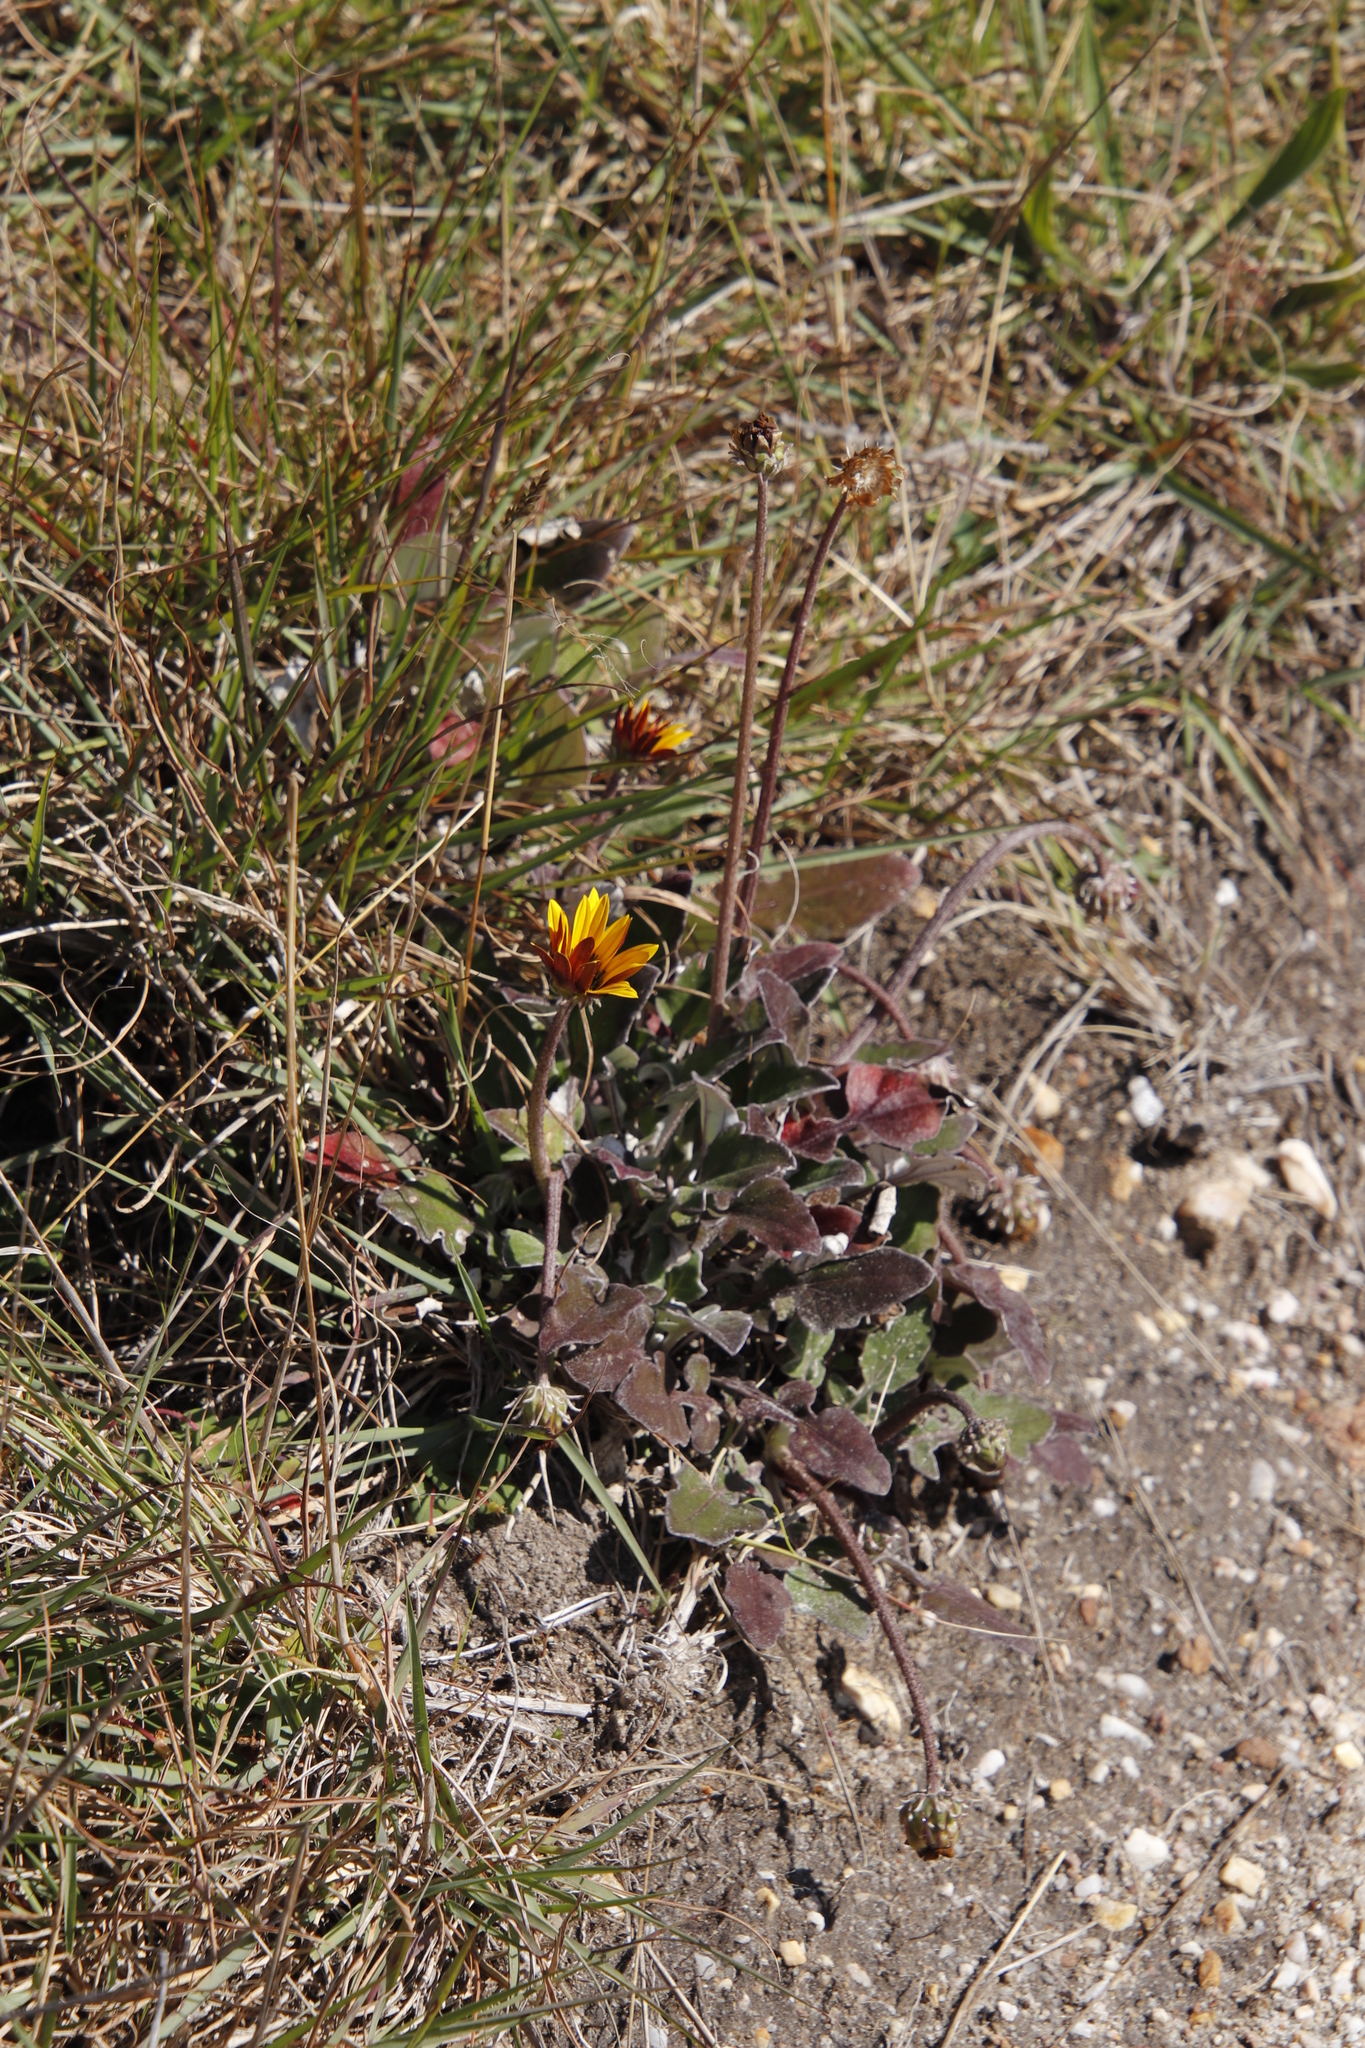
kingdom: Plantae
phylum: Tracheophyta
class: Magnoliopsida
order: Asterales
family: Asteraceae
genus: Arctotis
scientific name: Arctotis acaulis
